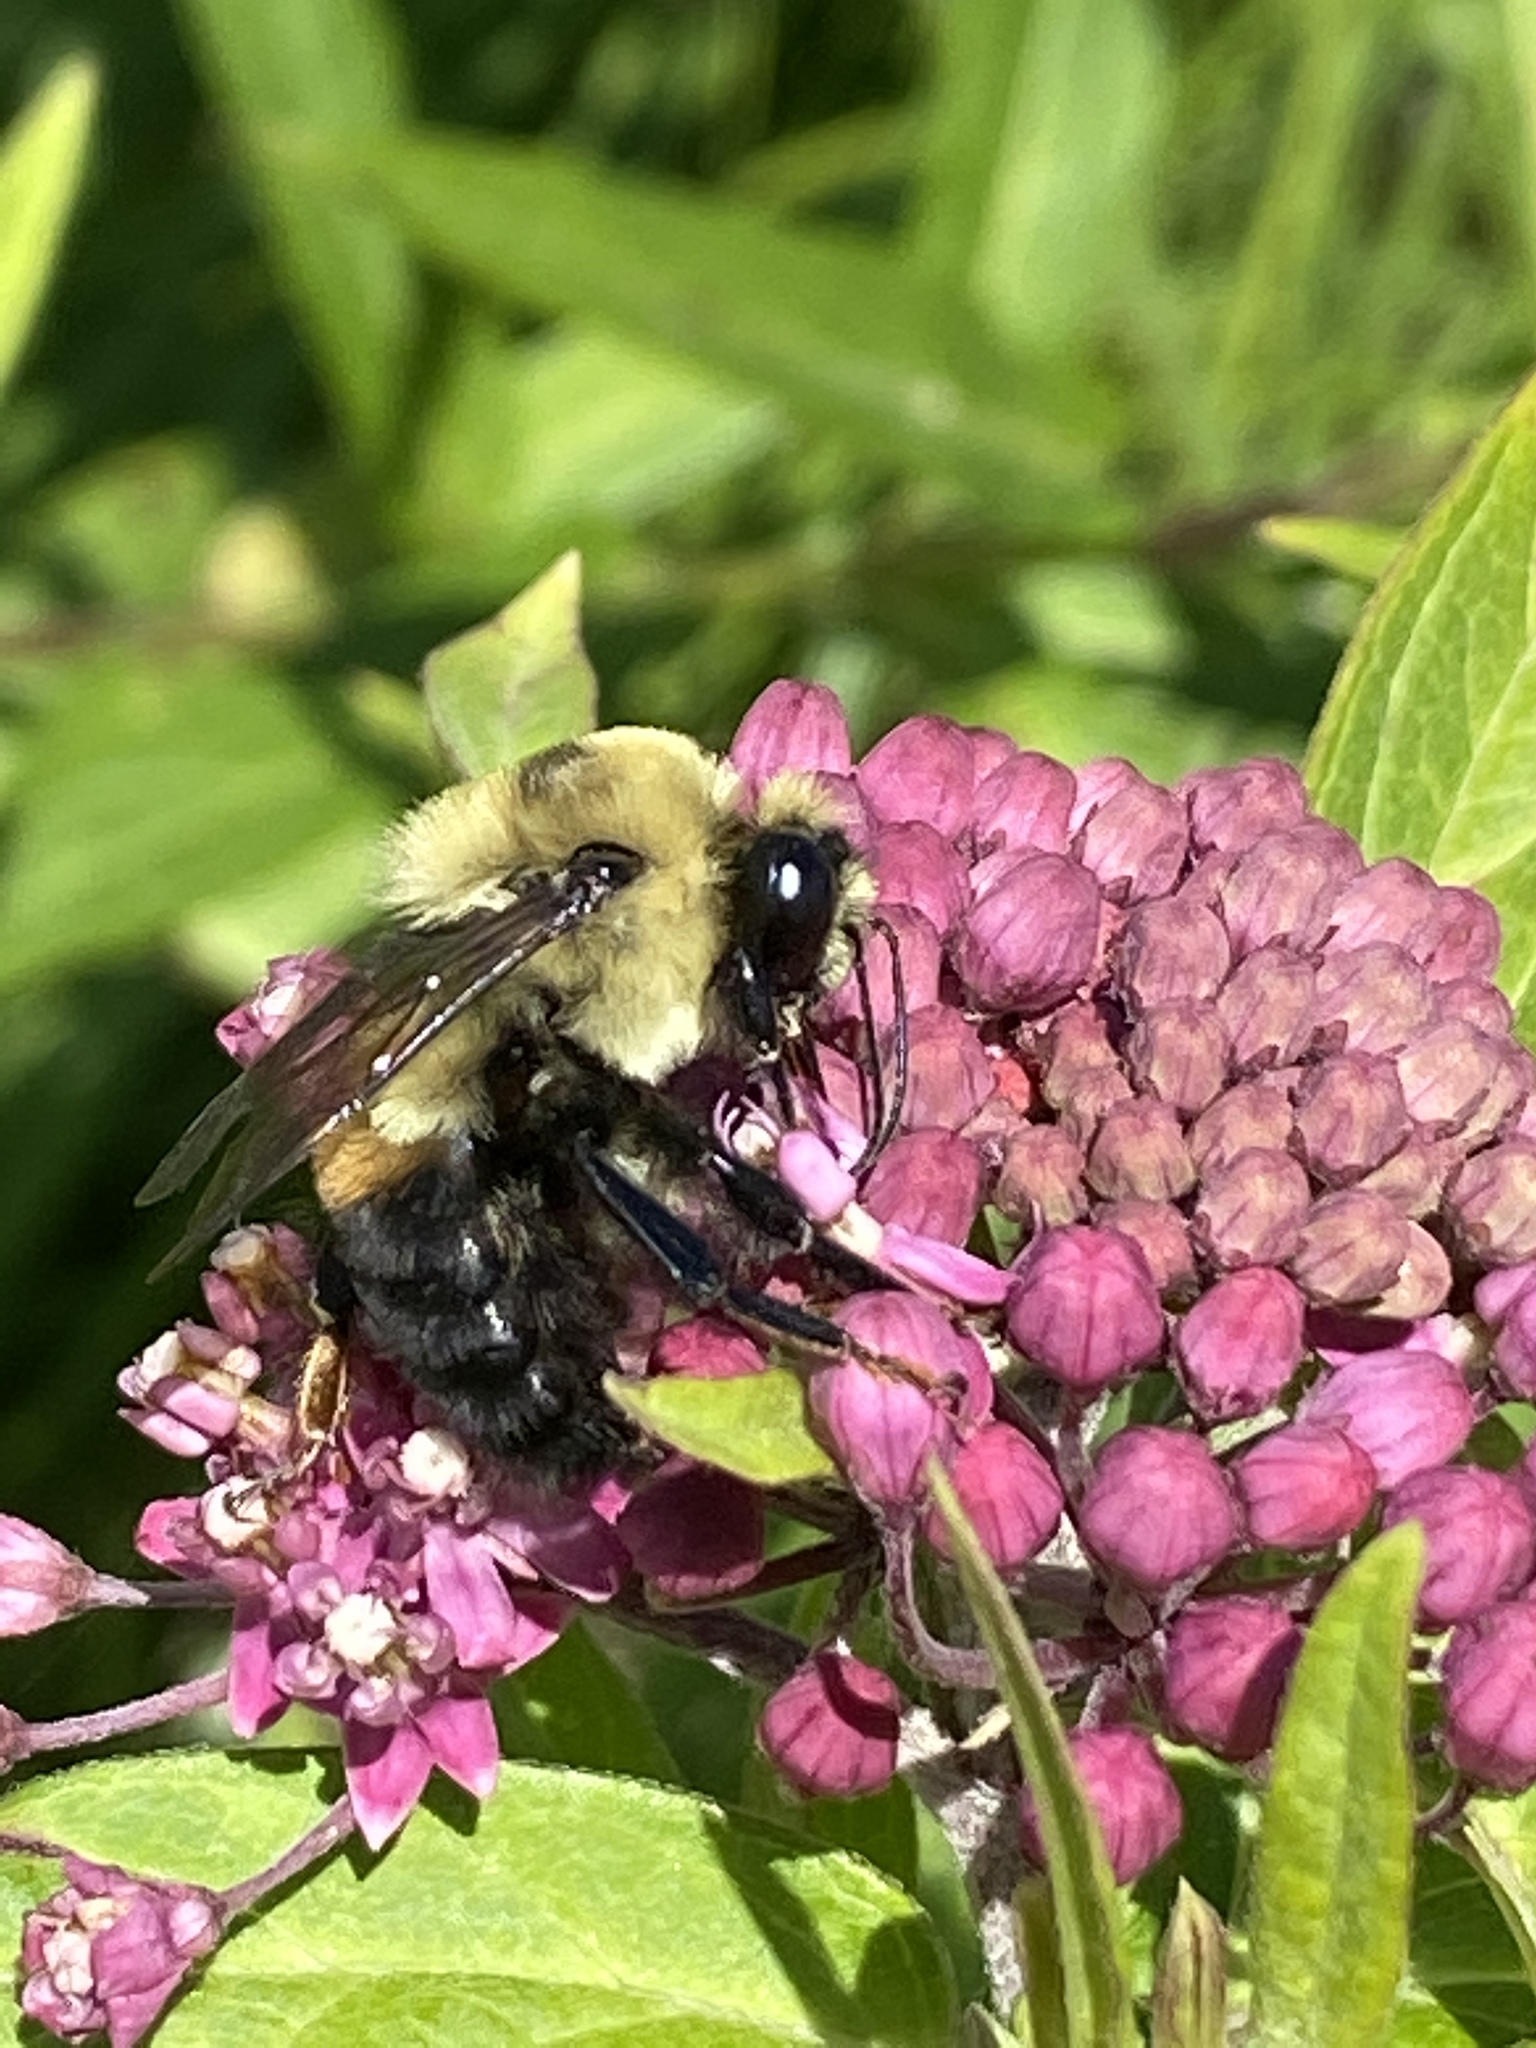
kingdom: Animalia
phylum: Arthropoda
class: Insecta
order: Hymenoptera
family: Apidae
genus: Bombus
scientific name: Bombus griseocollis
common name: Brown-belted bumble bee
